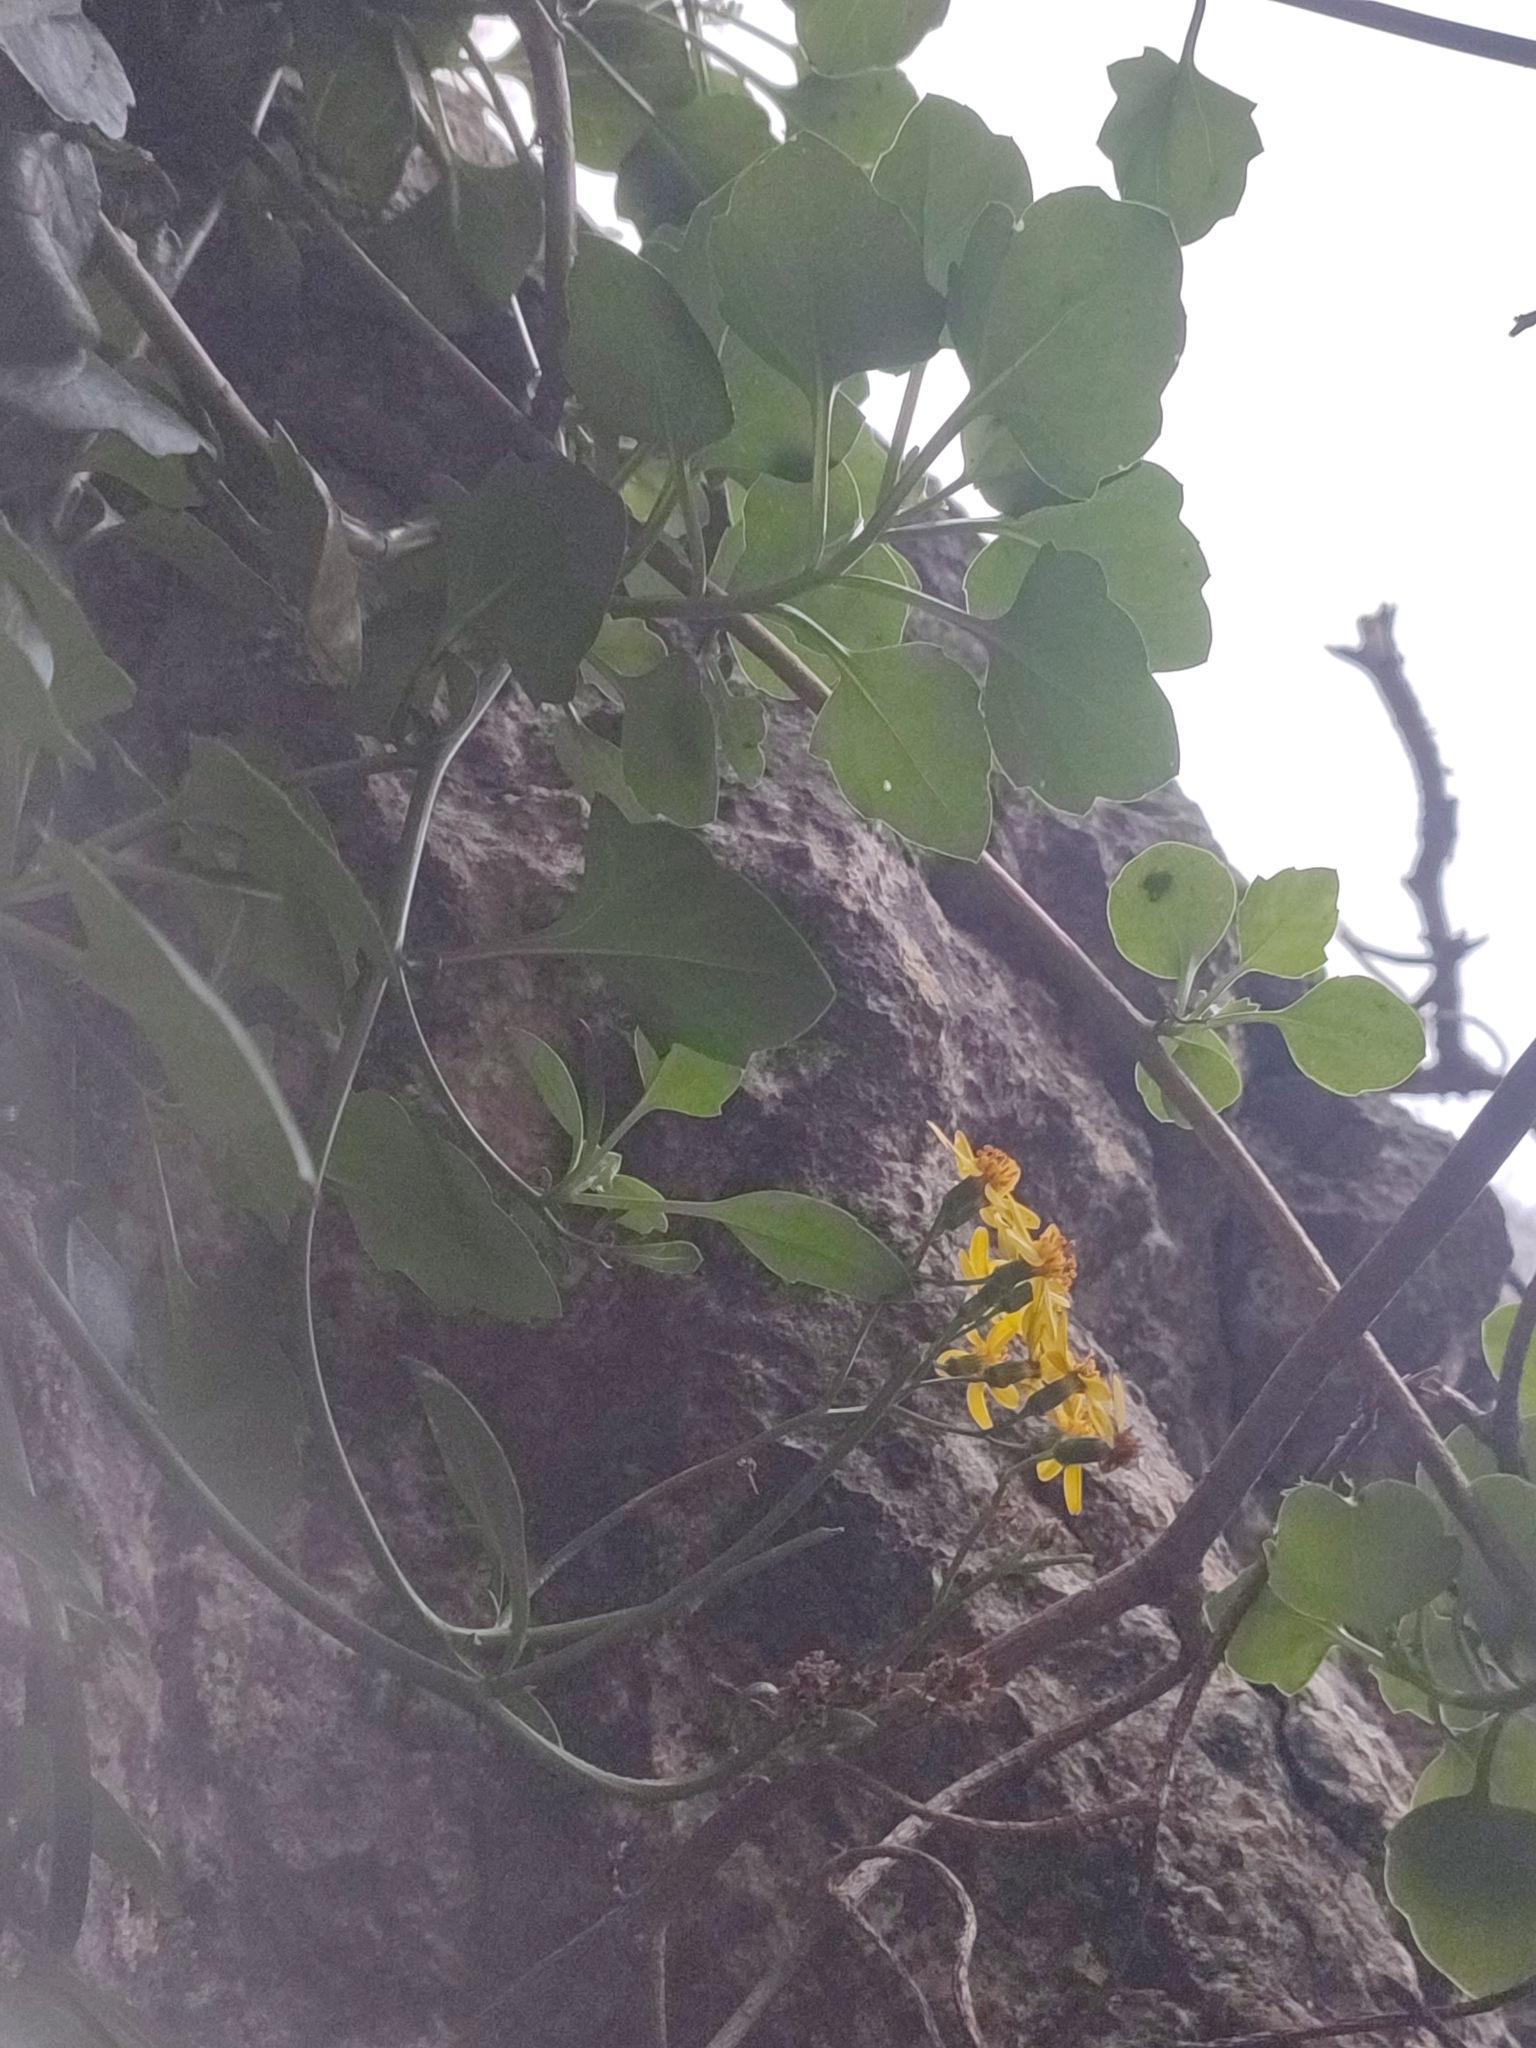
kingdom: Plantae
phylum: Tracheophyta
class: Magnoliopsida
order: Asterales
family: Asteraceae
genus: Senecio
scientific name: Senecio angulatus
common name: Climbing groundsel
